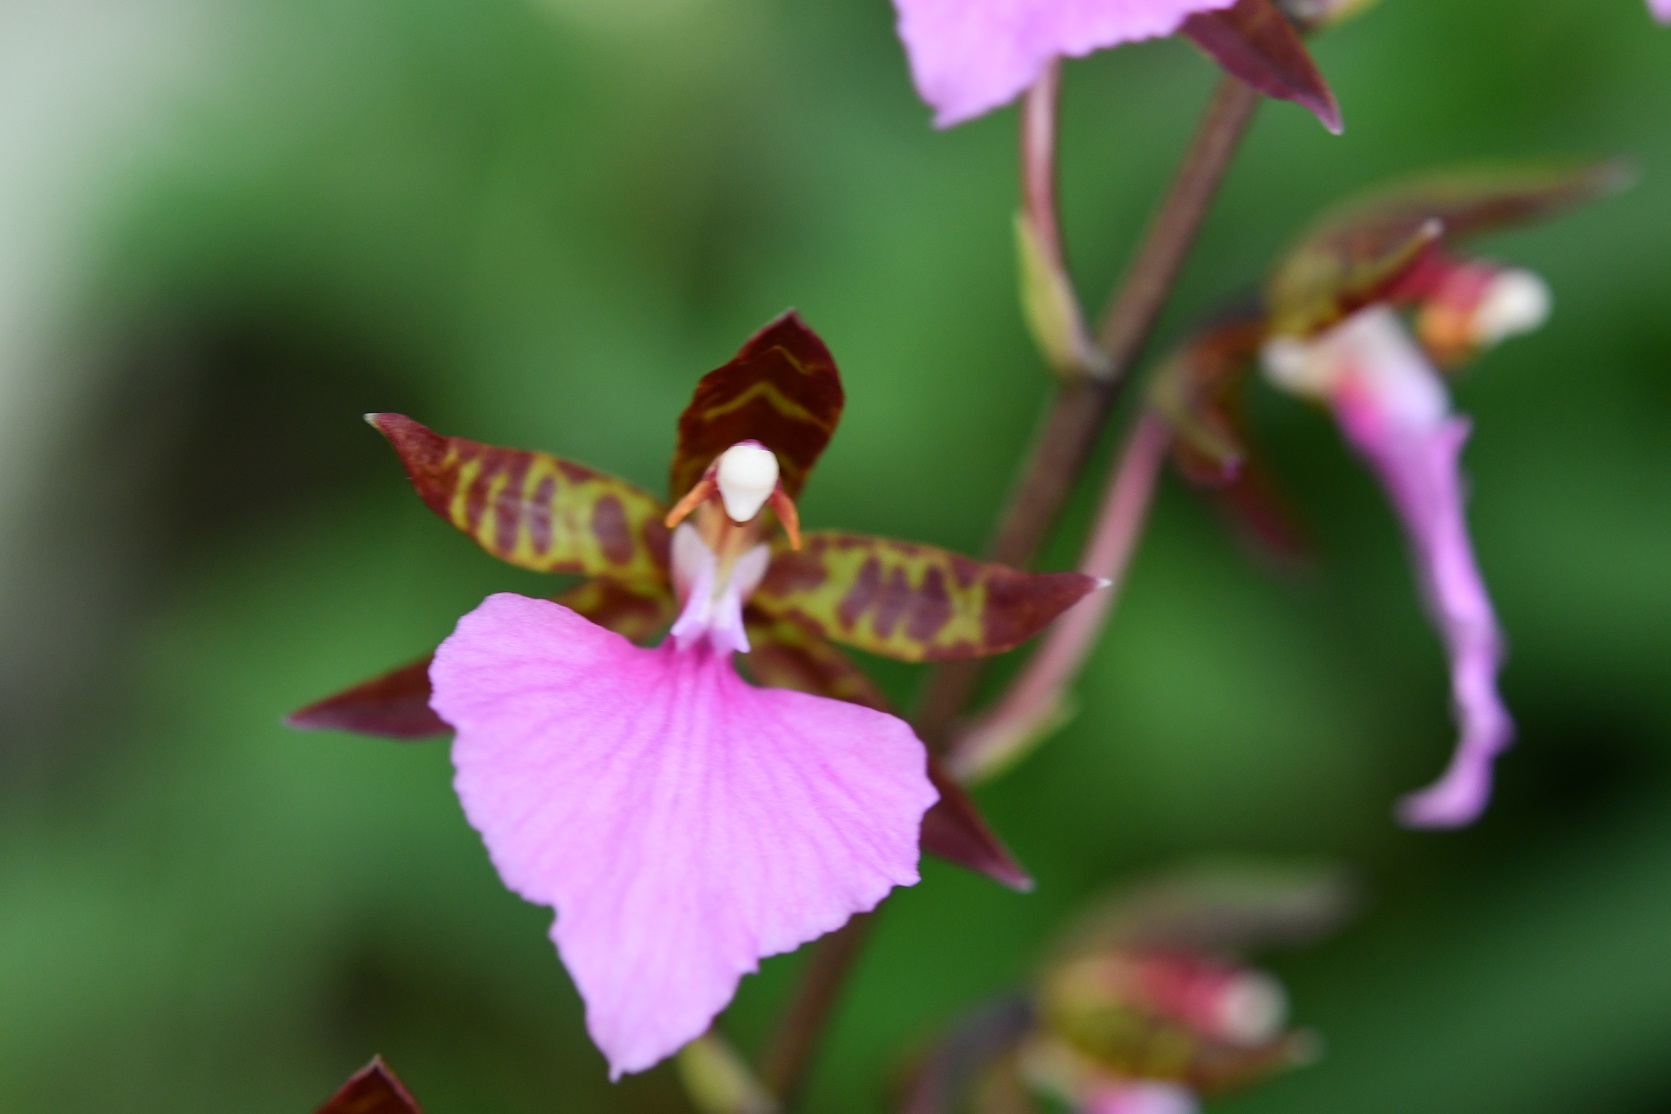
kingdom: Plantae
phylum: Tracheophyta
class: Liliopsida
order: Asparagales
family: Orchidaceae
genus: Rhynchostele
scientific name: Rhynchostele bictoniensis
